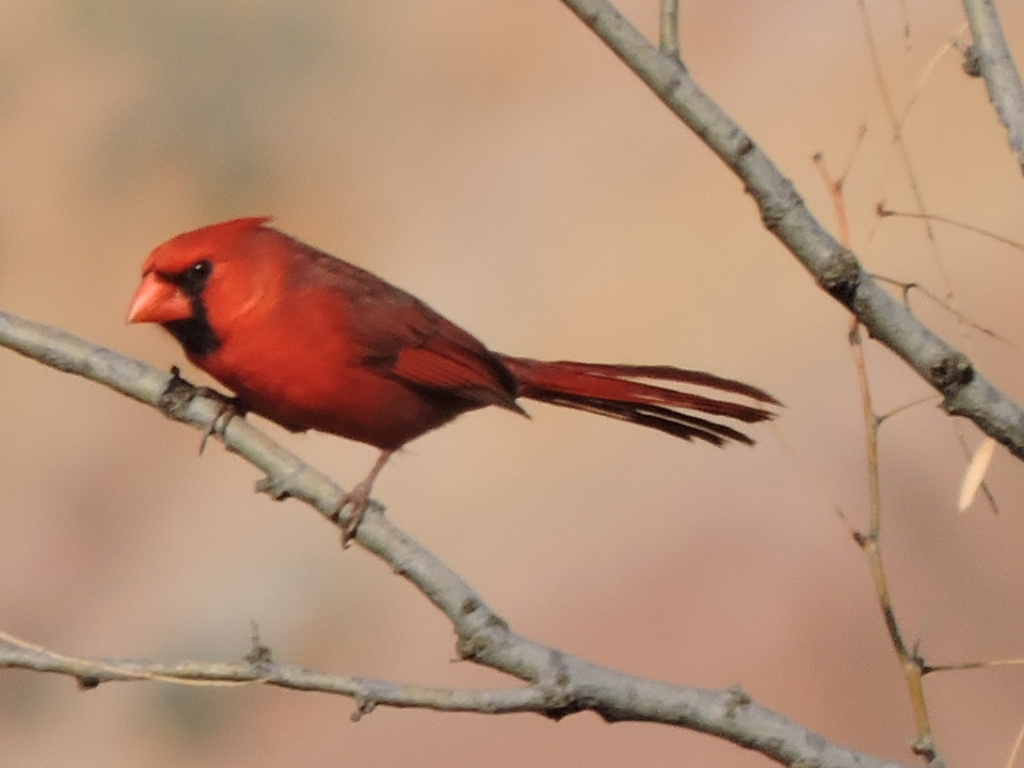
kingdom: Animalia
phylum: Chordata
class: Aves
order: Passeriformes
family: Cardinalidae
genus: Cardinalis
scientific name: Cardinalis cardinalis
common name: Northern cardinal
